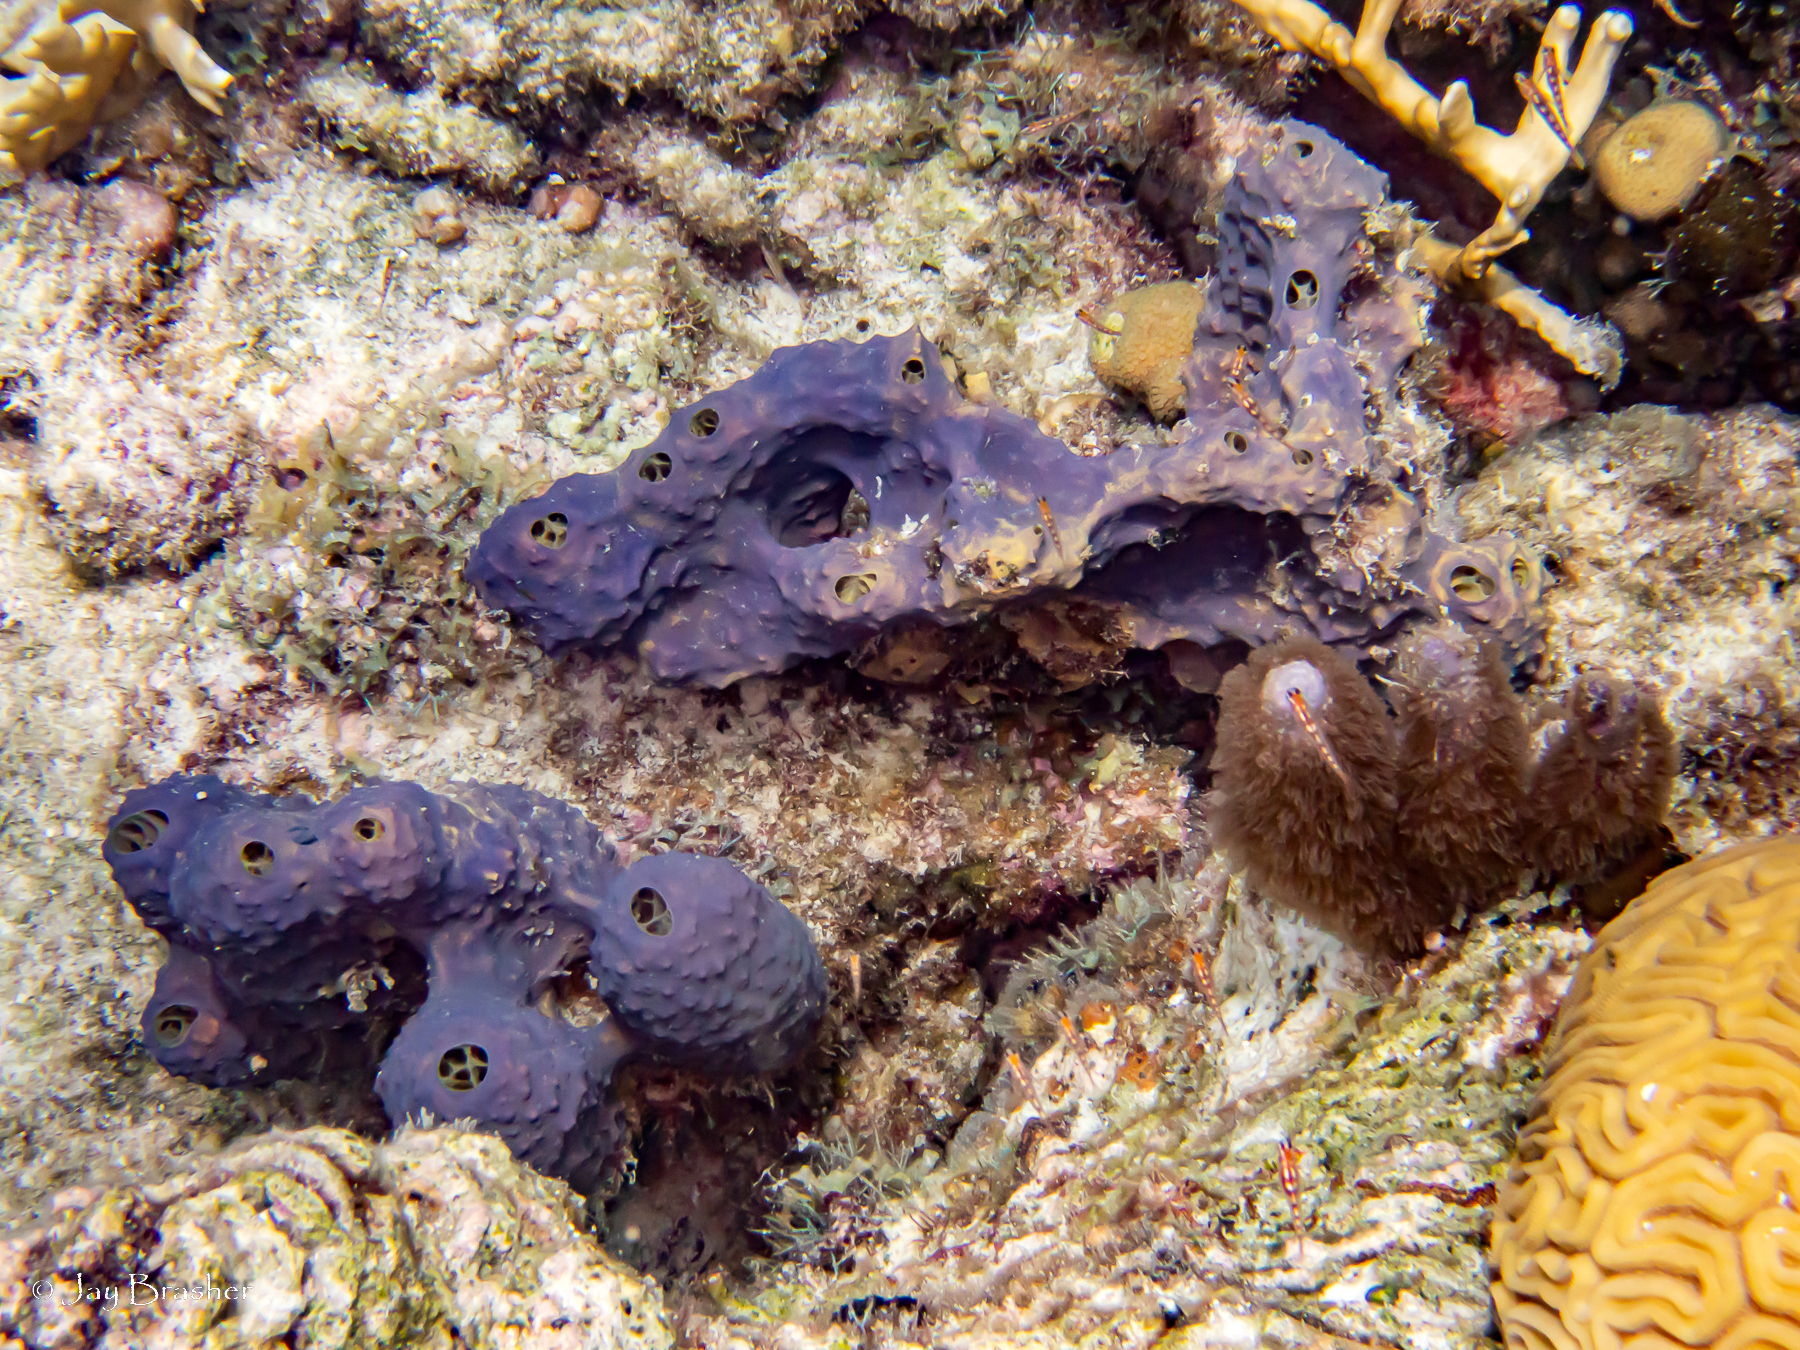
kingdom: Animalia
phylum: Porifera
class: Demospongiae
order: Verongiida
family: Aplysinidae
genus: Aiolochroia
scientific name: Aiolochroia crassa
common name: Branching tube sponge
